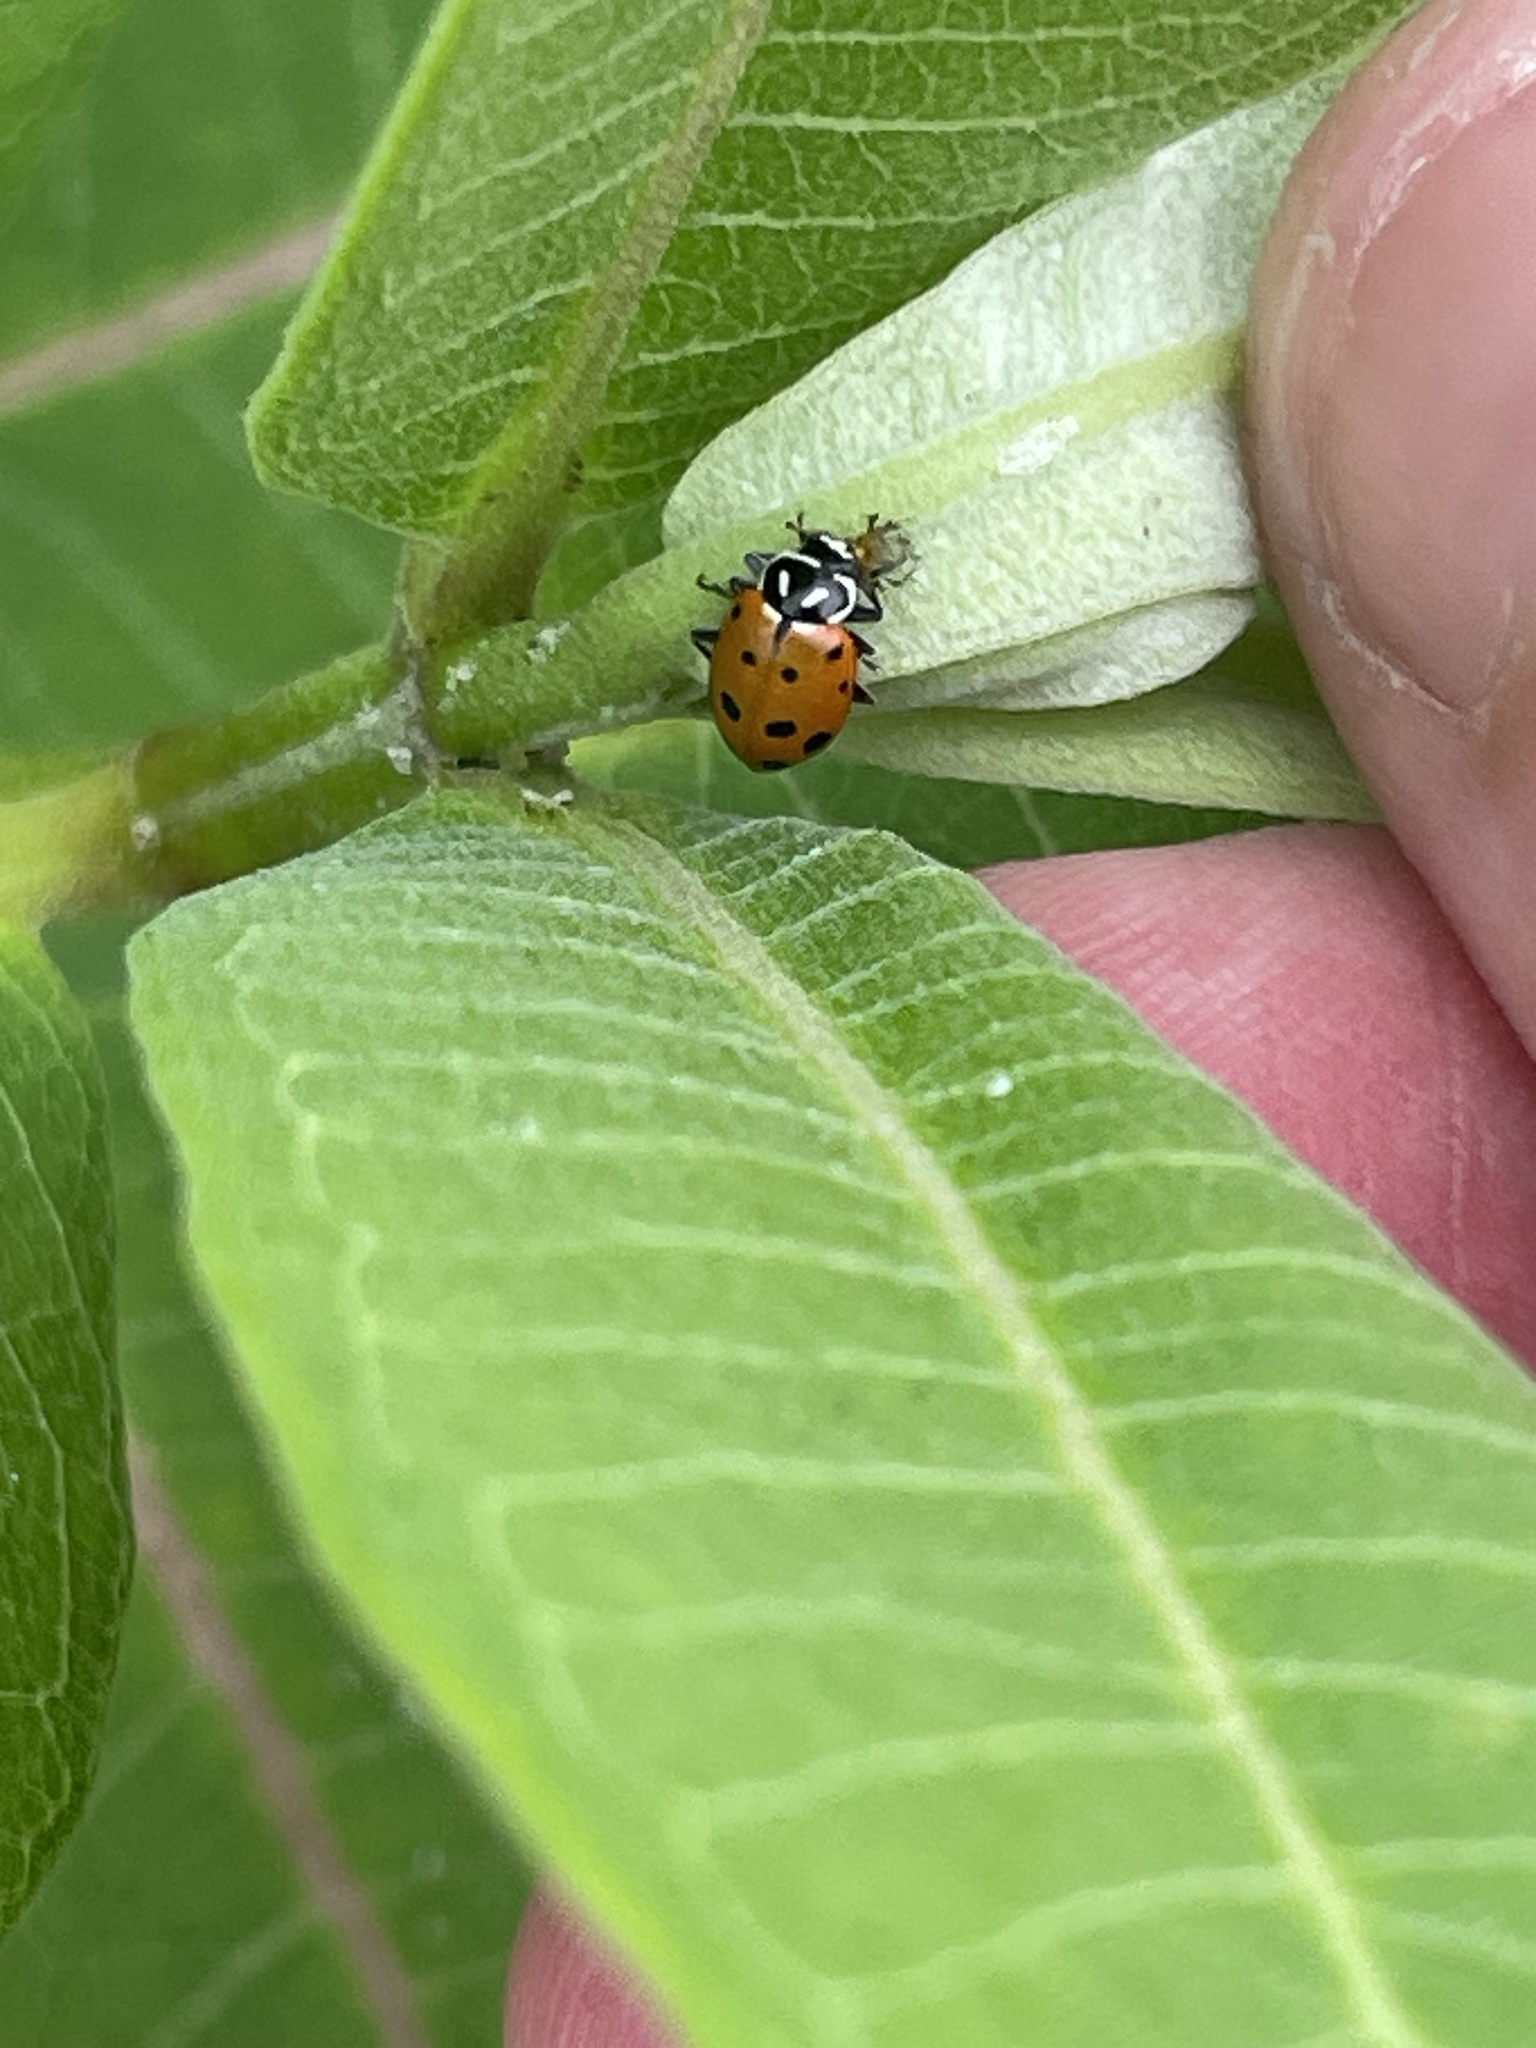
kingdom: Animalia
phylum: Arthropoda
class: Insecta
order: Coleoptera
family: Coccinellidae
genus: Hippodamia
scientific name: Hippodamia convergens
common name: Convergent lady beetle
